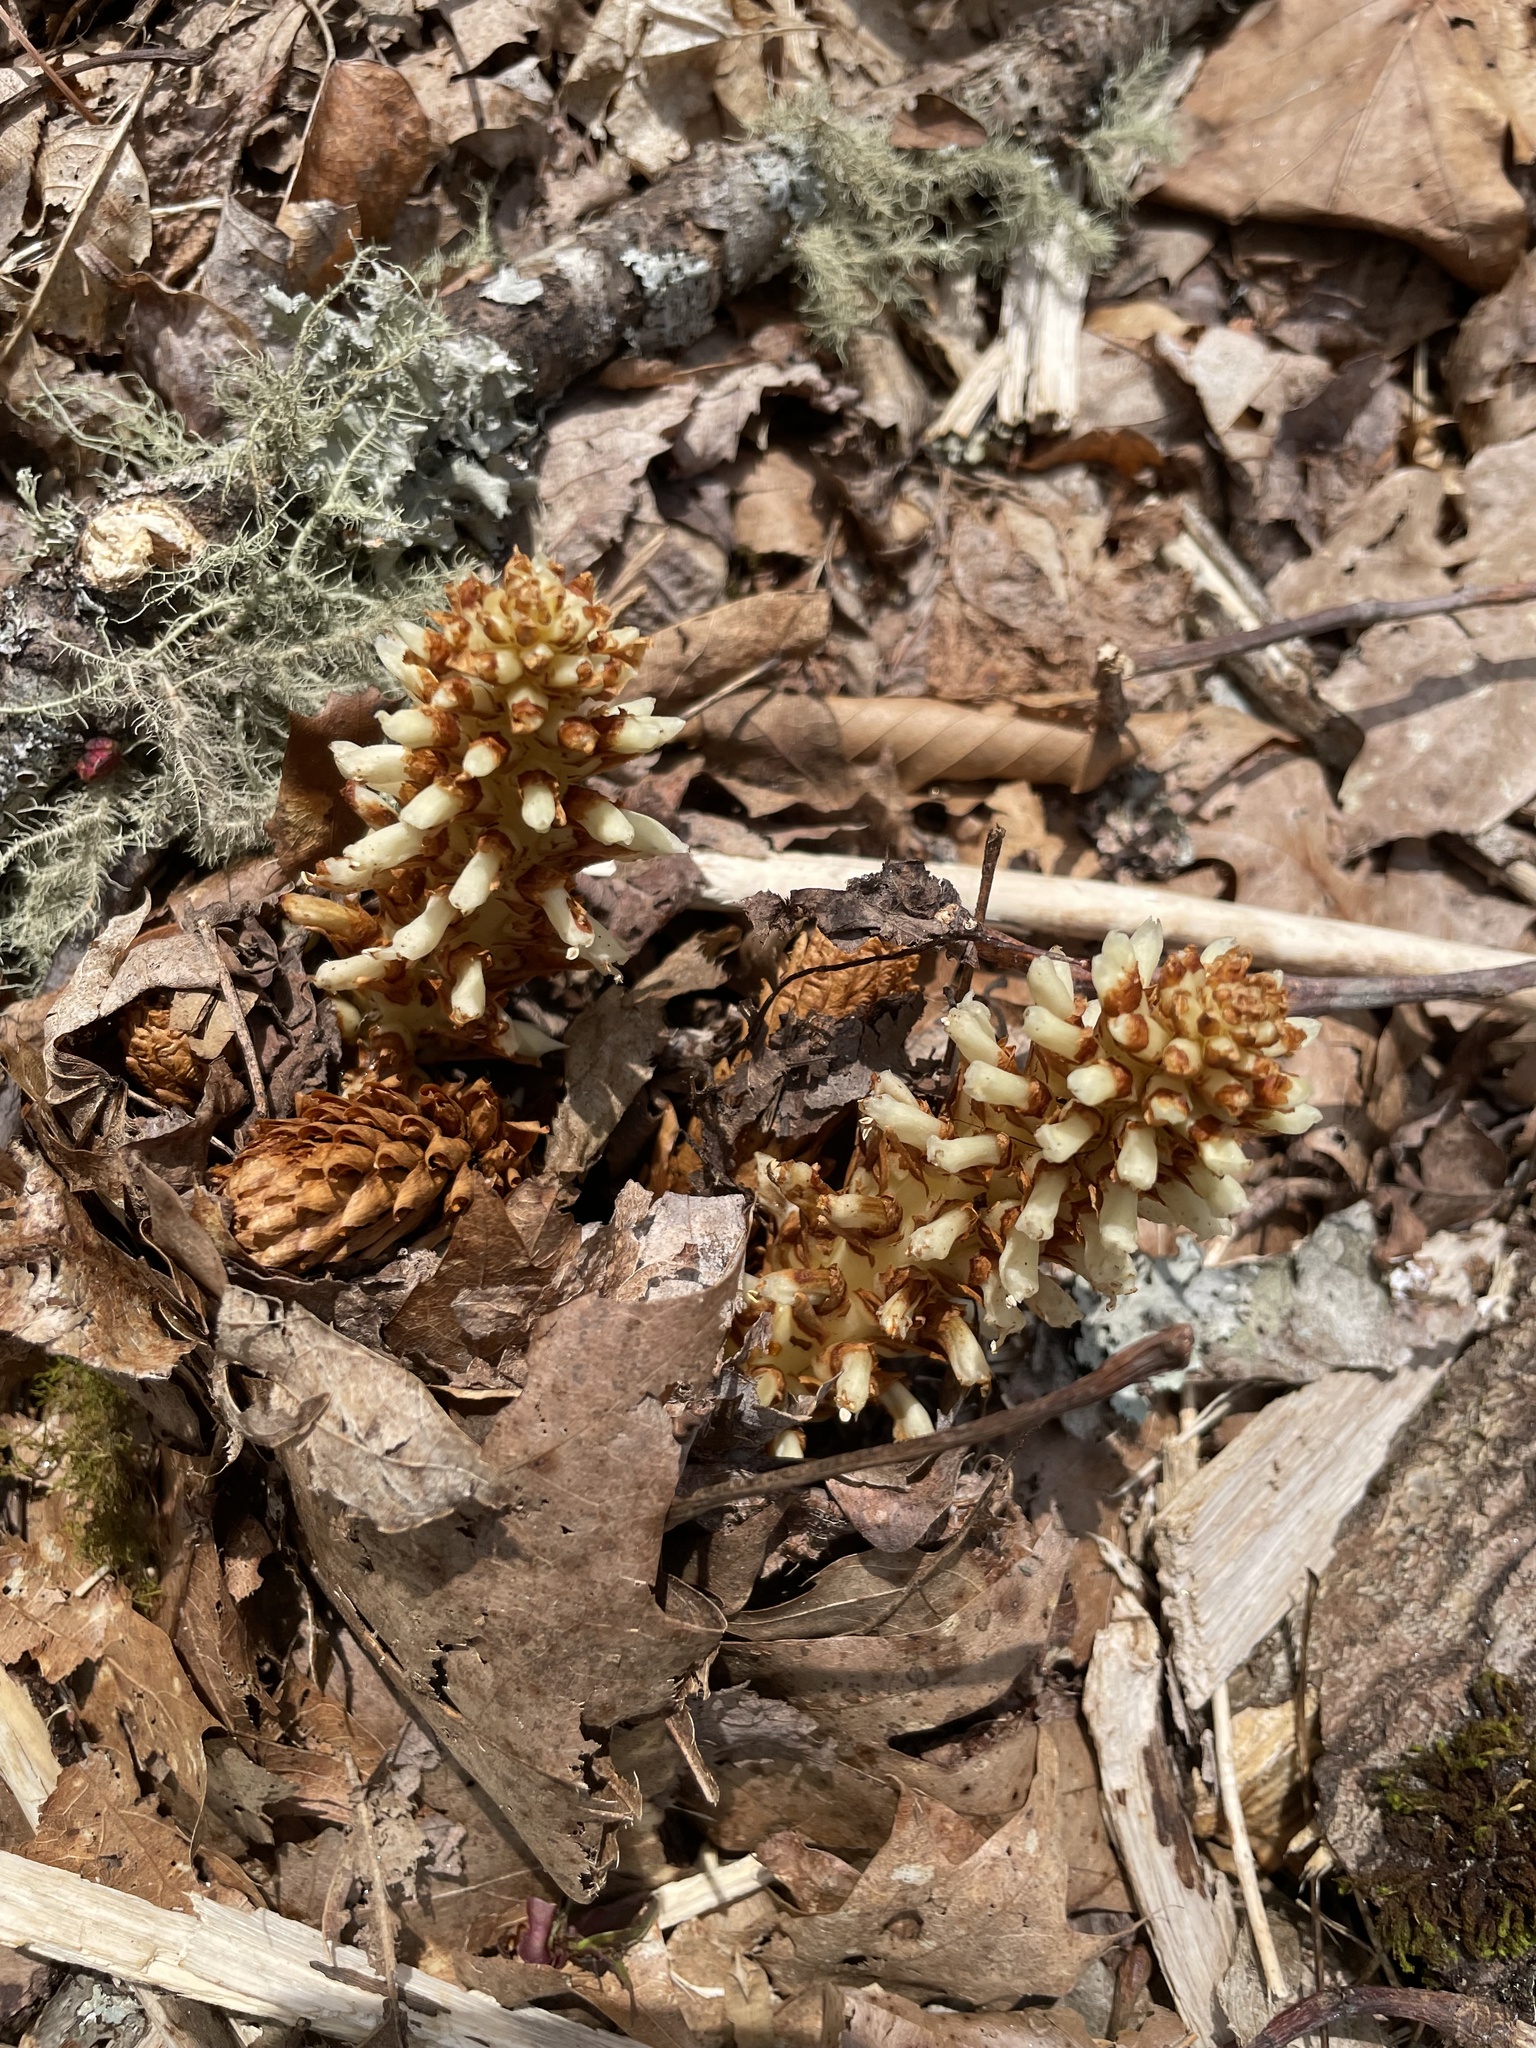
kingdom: Plantae
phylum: Tracheophyta
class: Magnoliopsida
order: Lamiales
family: Orobanchaceae
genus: Conopholis
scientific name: Conopholis americana
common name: American cancer-root
